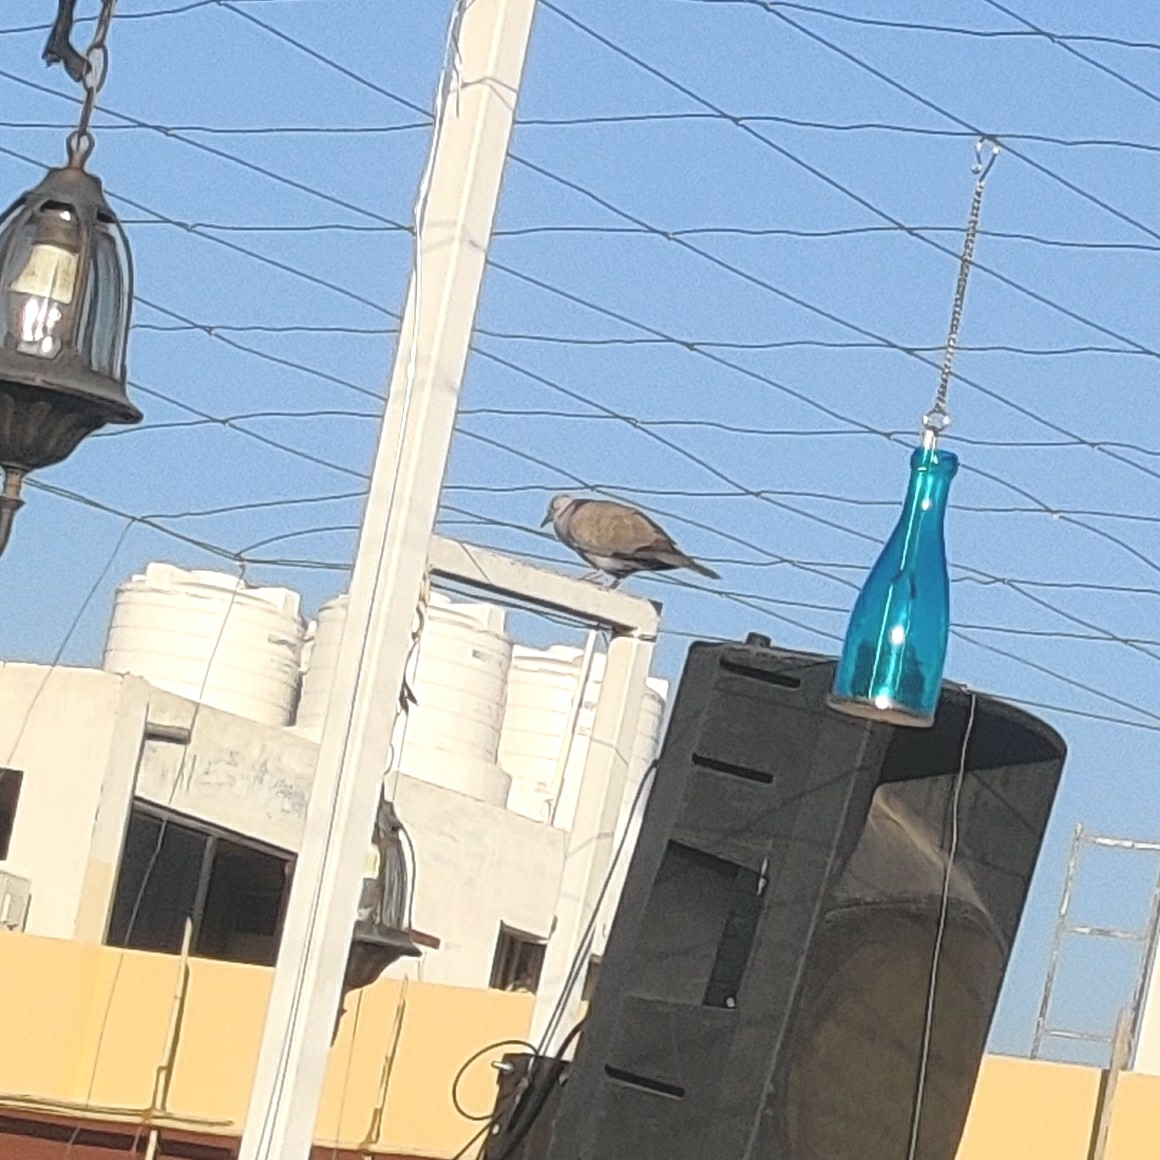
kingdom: Animalia
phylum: Chordata
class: Aves
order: Columbiformes
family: Columbidae
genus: Streptopelia
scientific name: Streptopelia decaocto
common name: Eurasian collared dove
